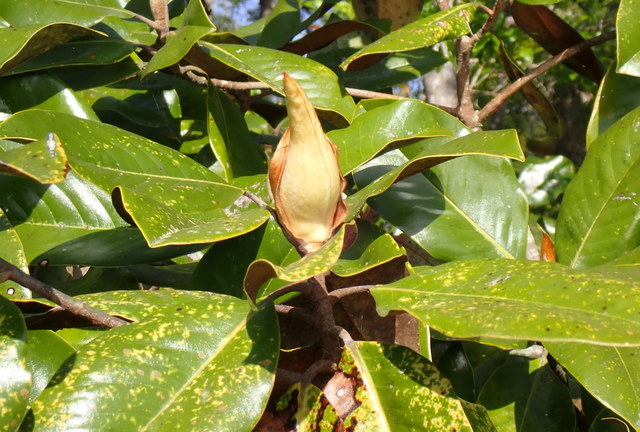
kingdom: Plantae
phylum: Tracheophyta
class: Magnoliopsida
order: Magnoliales
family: Magnoliaceae
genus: Magnolia
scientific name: Magnolia grandiflora
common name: Southern magnolia
